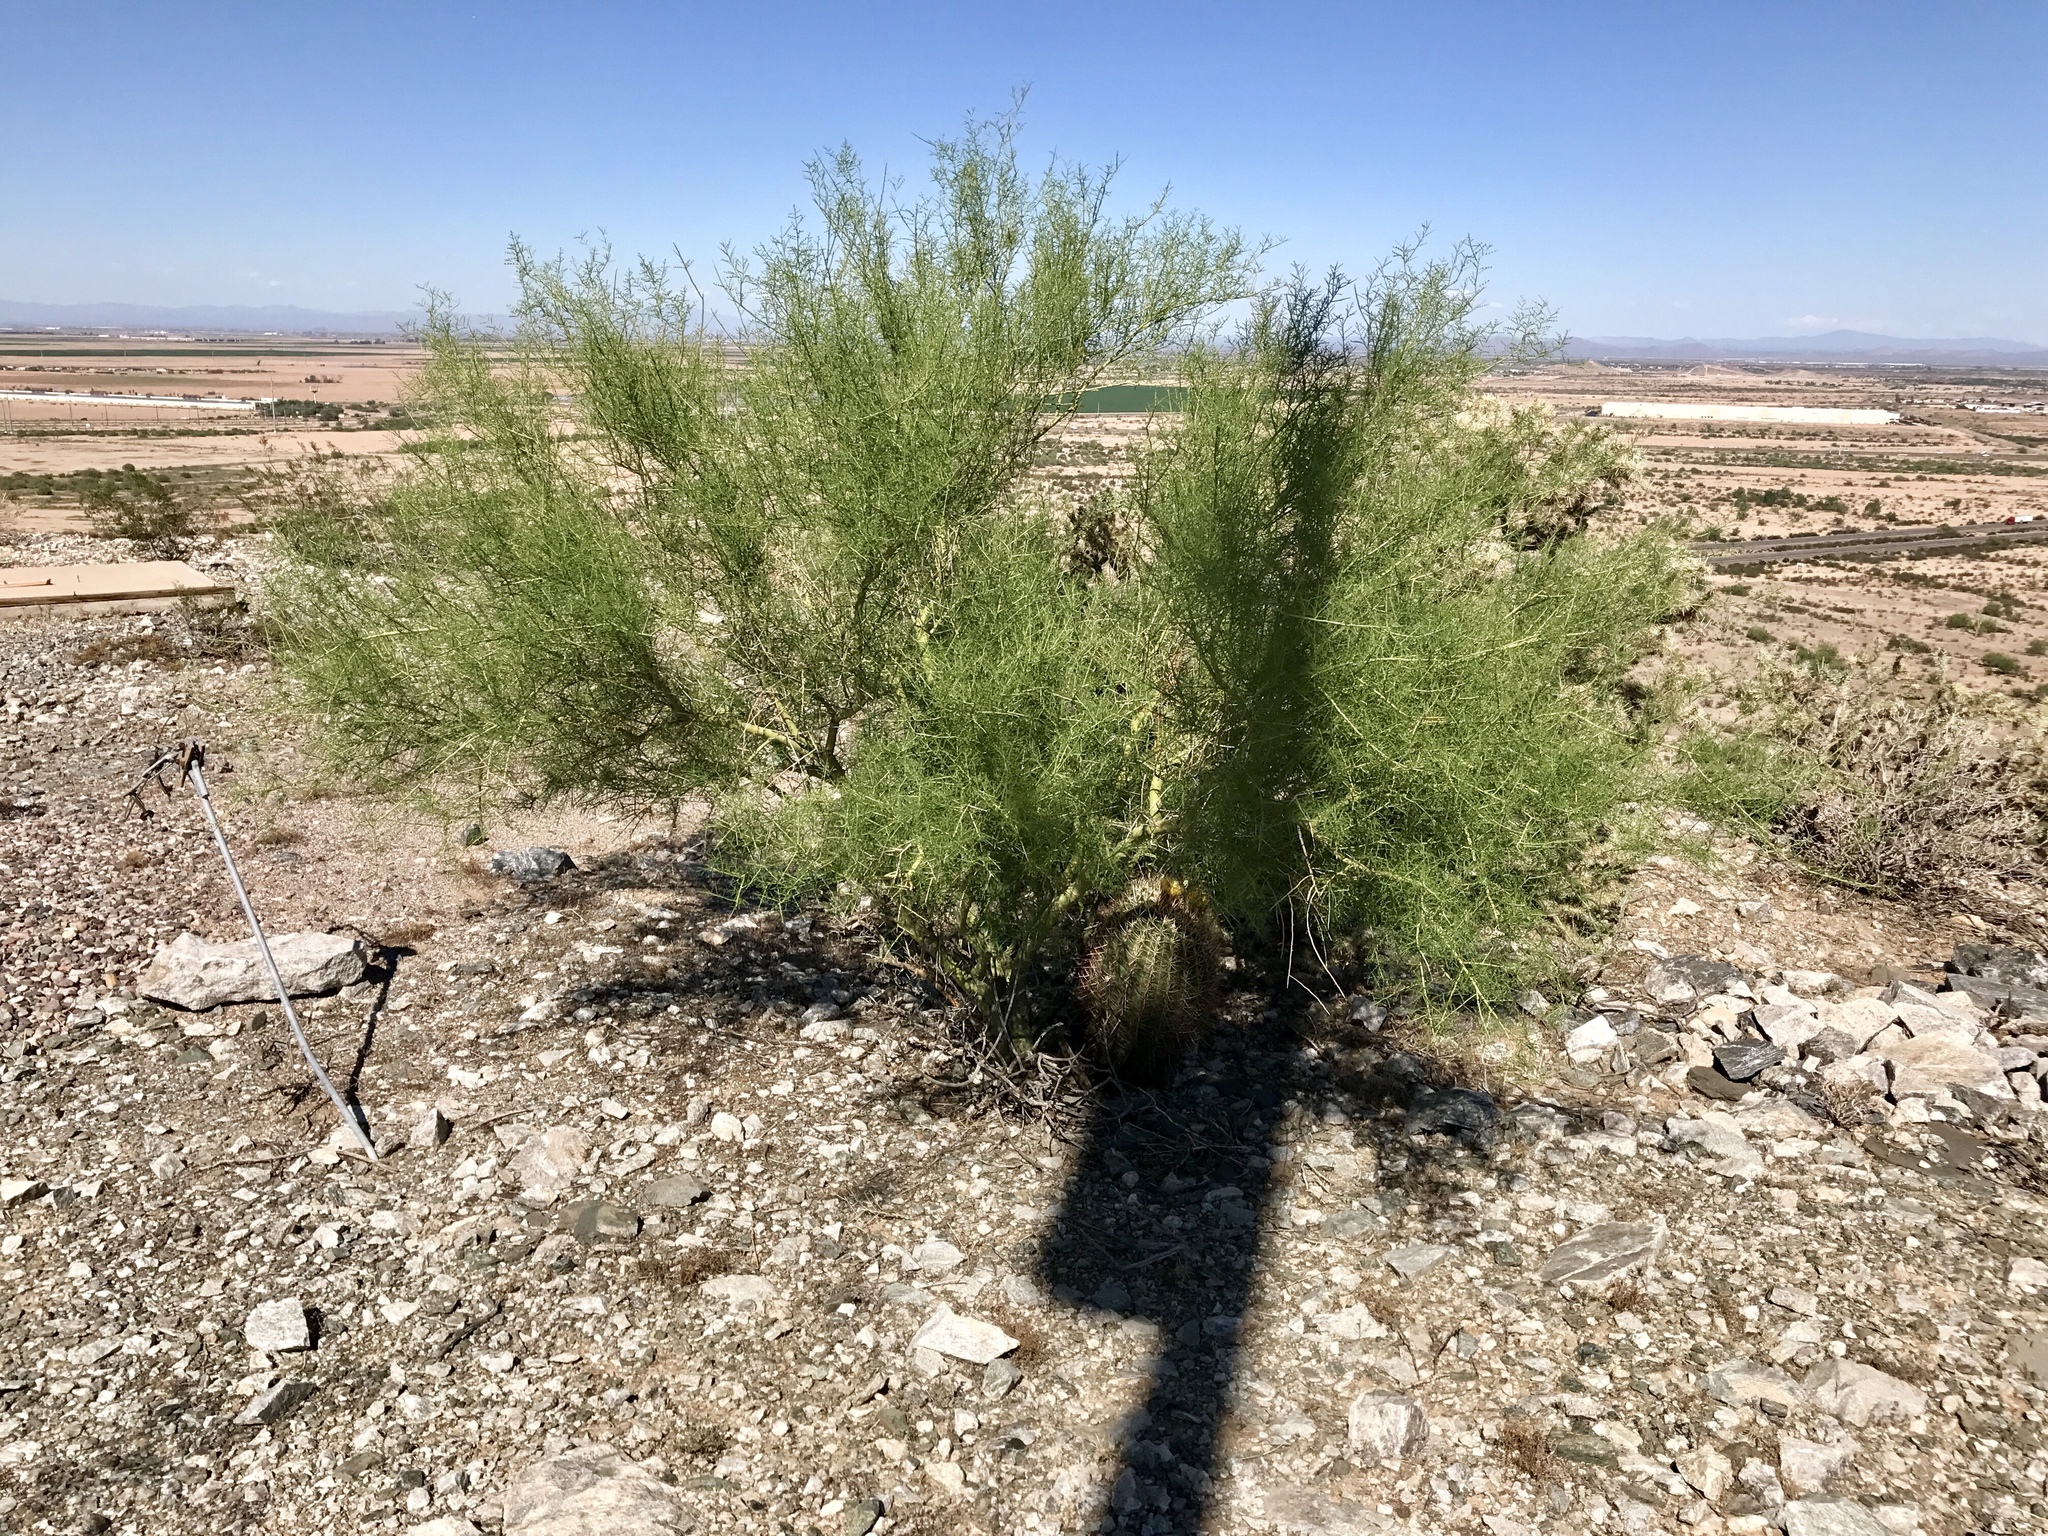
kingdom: Plantae
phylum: Tracheophyta
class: Magnoliopsida
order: Fabales
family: Fabaceae
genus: Parkinsonia
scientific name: Parkinsonia microphylla
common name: Yellow paloverde
